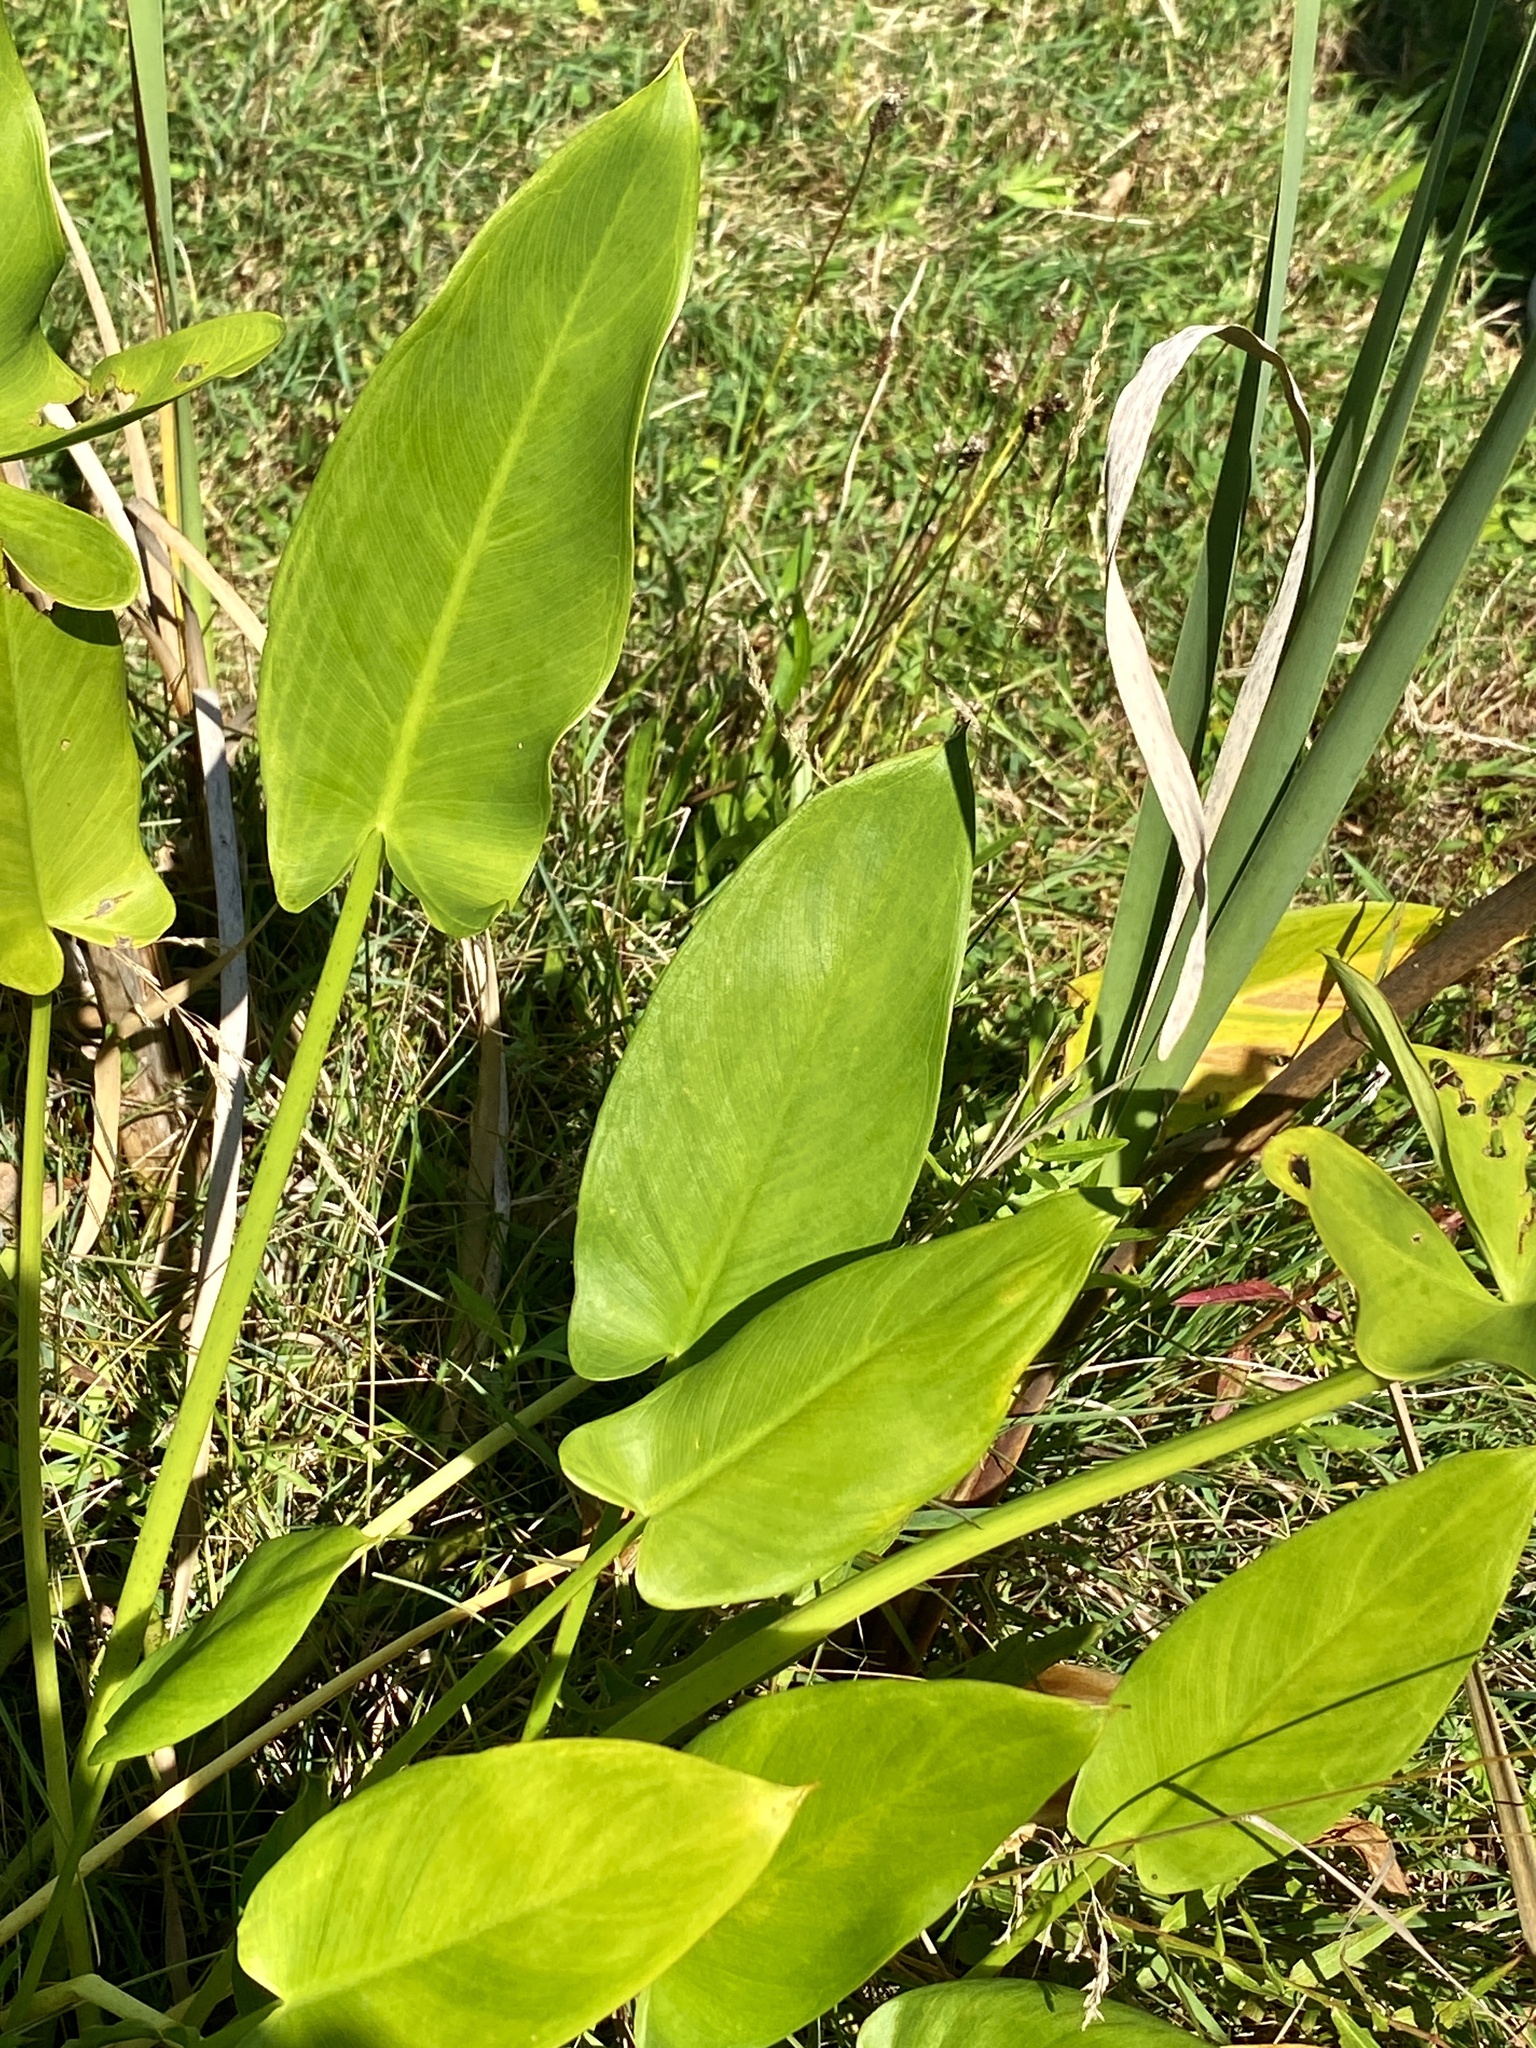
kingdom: Plantae
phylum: Tracheophyta
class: Liliopsida
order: Alismatales
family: Araceae
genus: Peltandra
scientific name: Peltandra virginica
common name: Arrow arum
